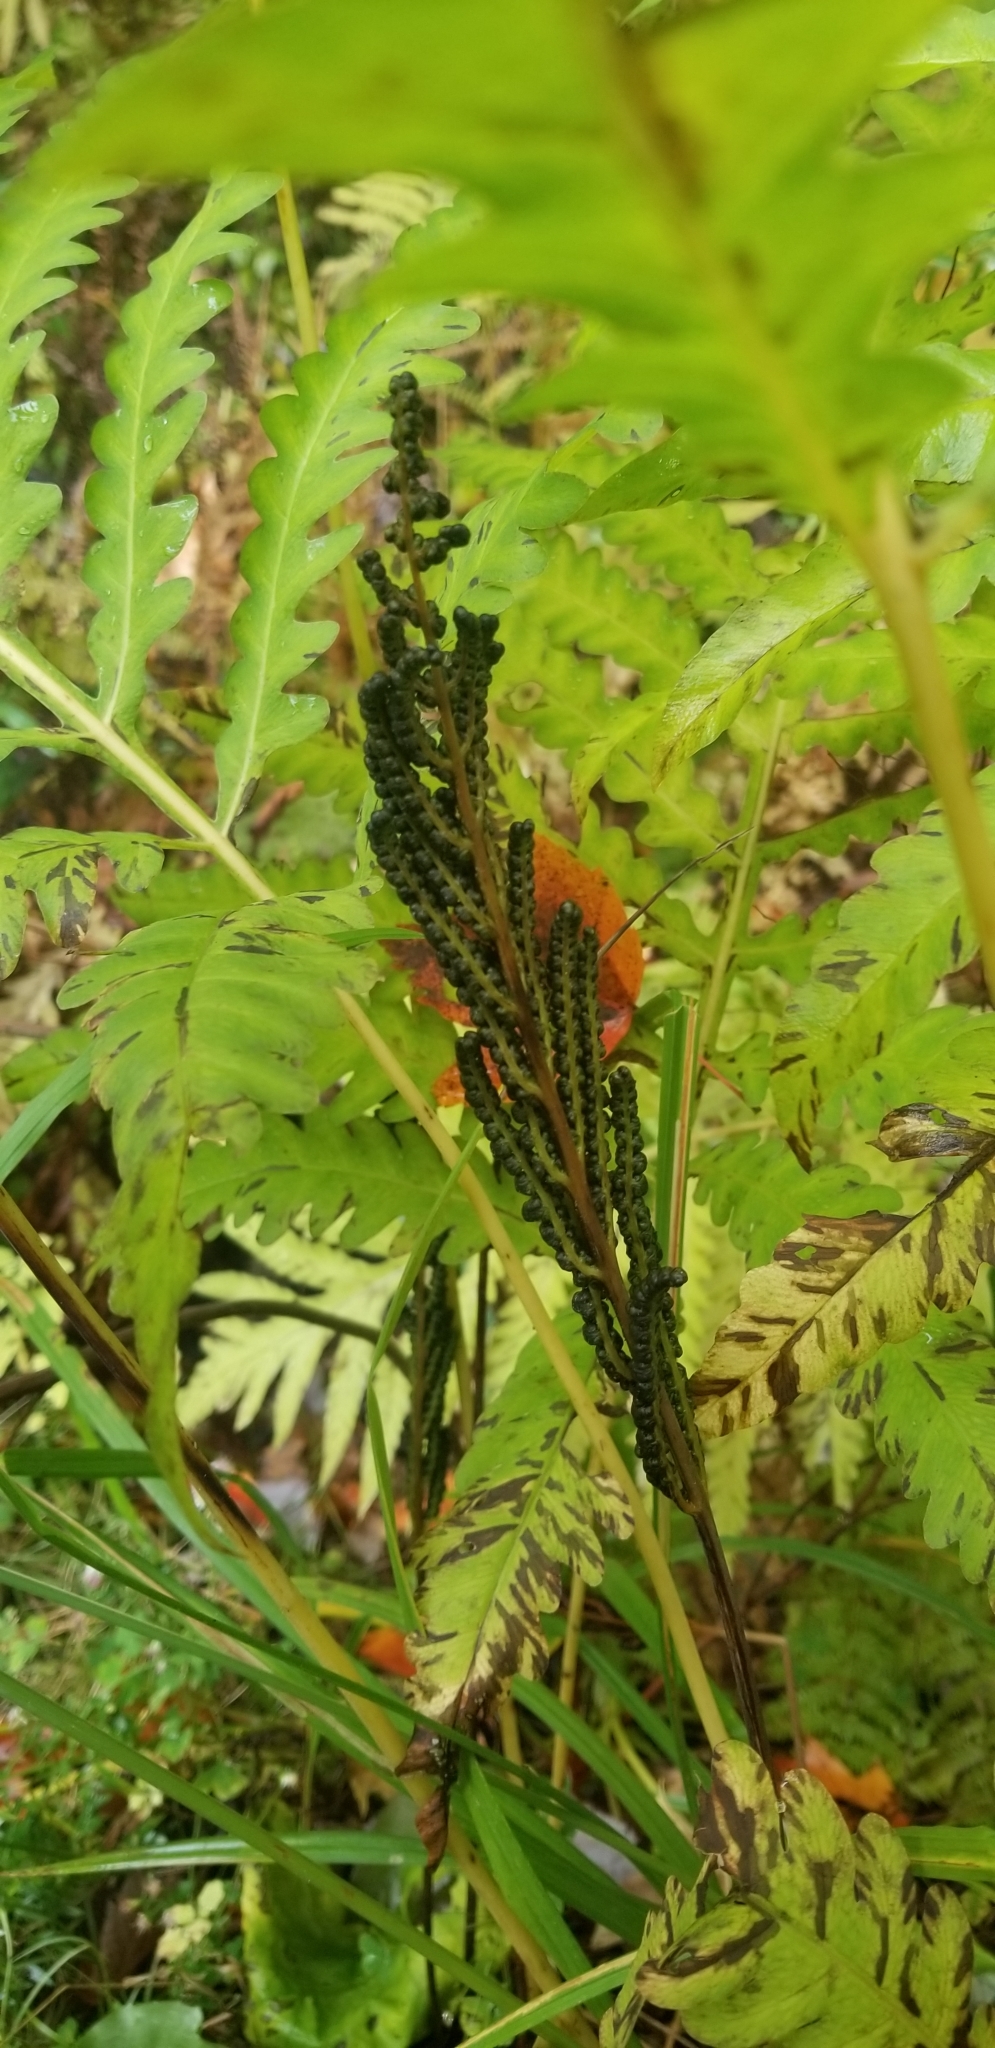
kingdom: Plantae
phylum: Tracheophyta
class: Polypodiopsida
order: Polypodiales
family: Onocleaceae
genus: Onoclea
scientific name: Onoclea sensibilis
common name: Sensitive fern
